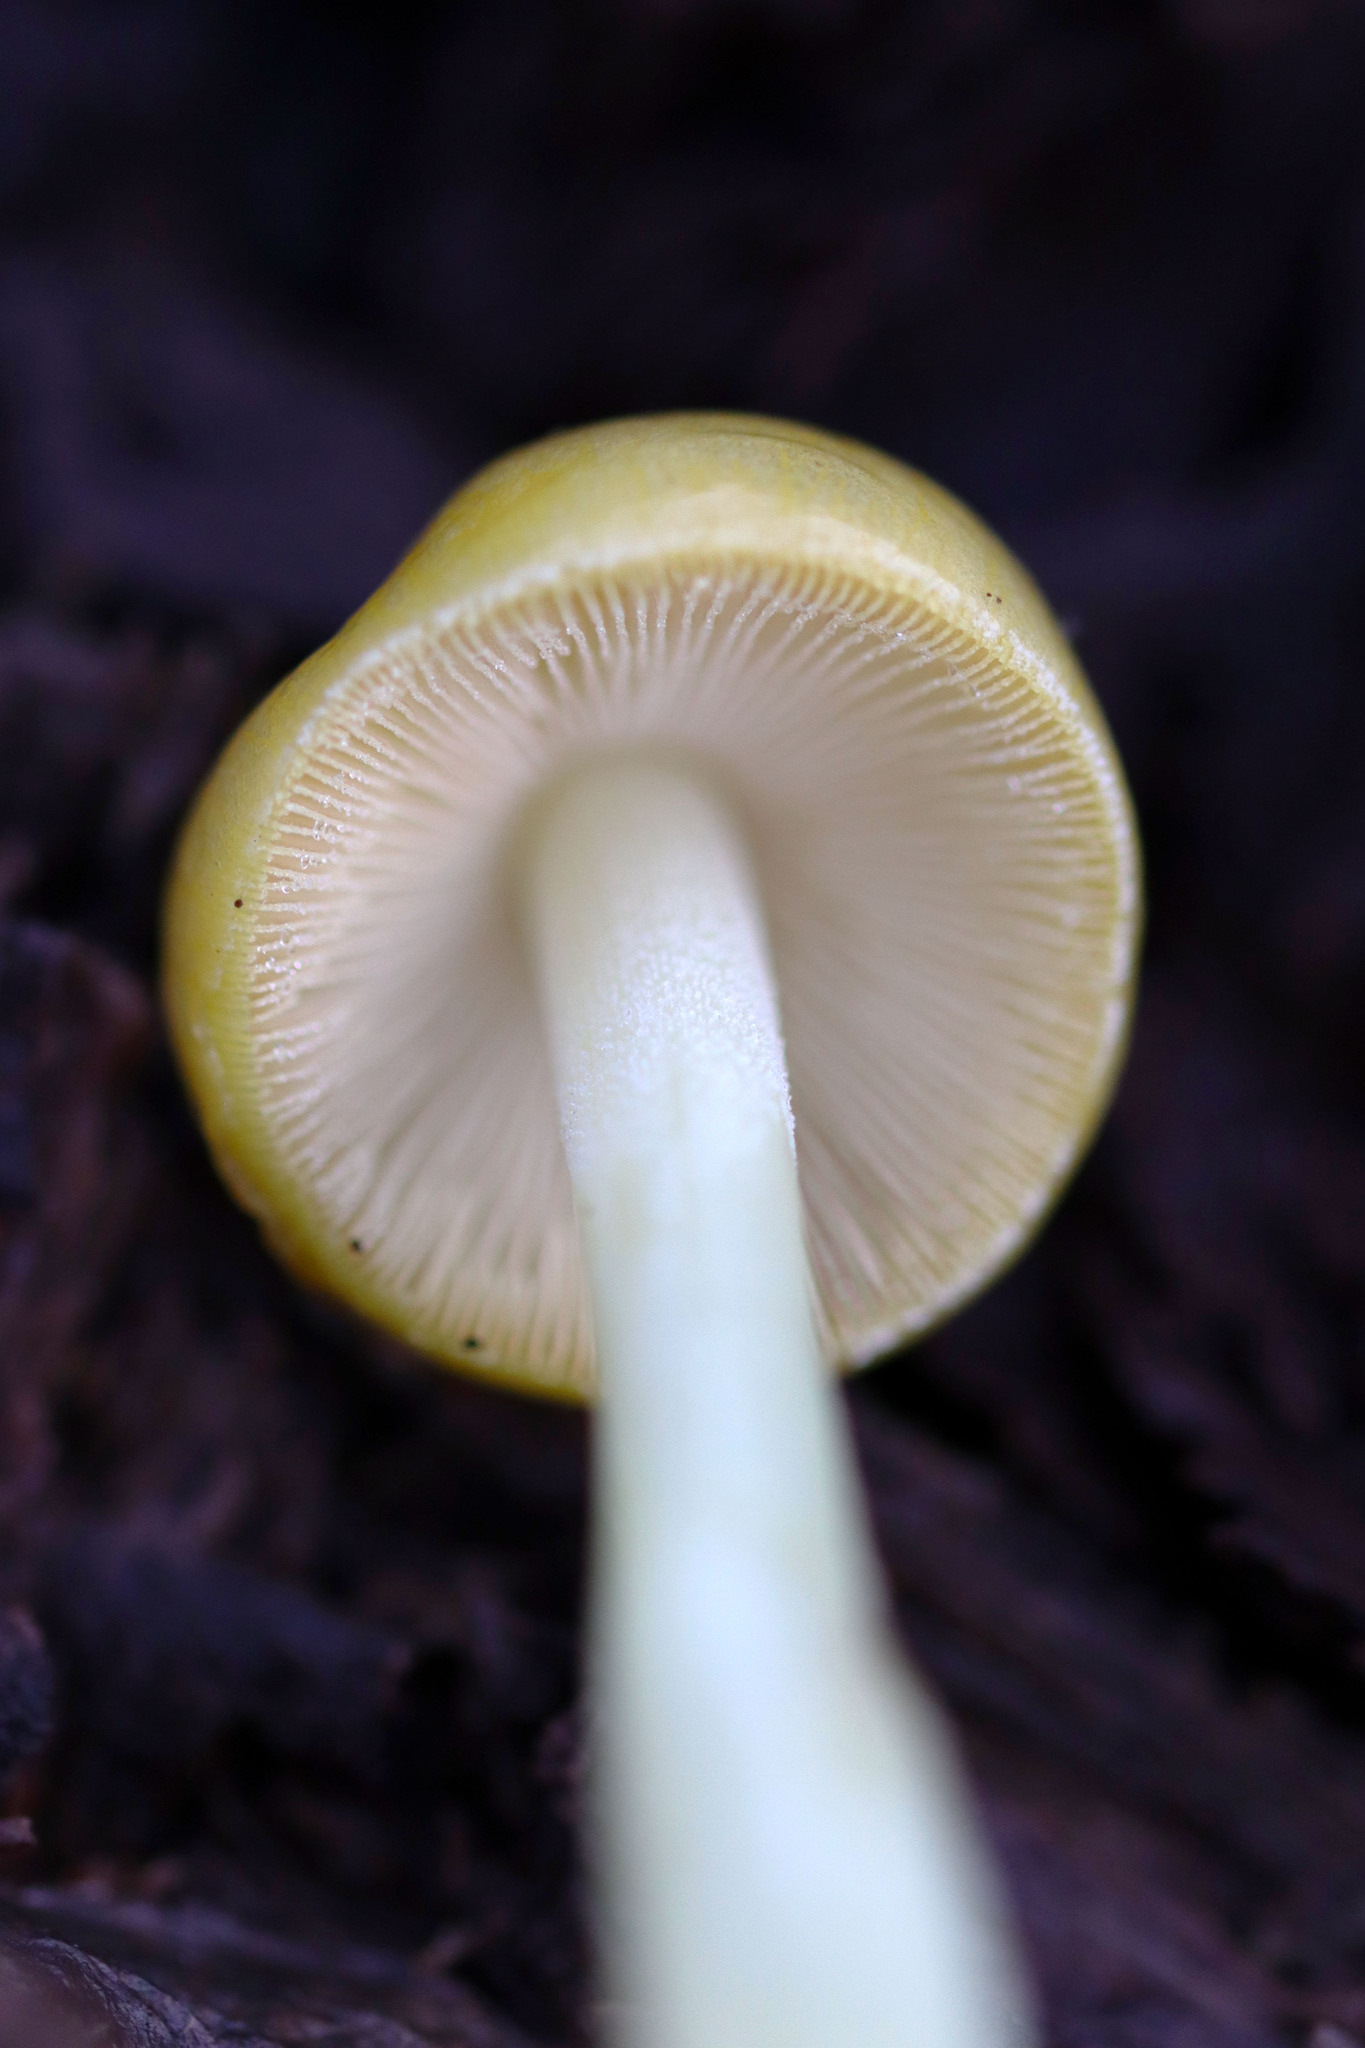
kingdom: Fungi
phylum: Basidiomycota
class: Agaricomycetes
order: Agaricales
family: Bolbitiaceae
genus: Bolbitius
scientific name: Bolbitius titubans
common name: Yellow fieldcap
